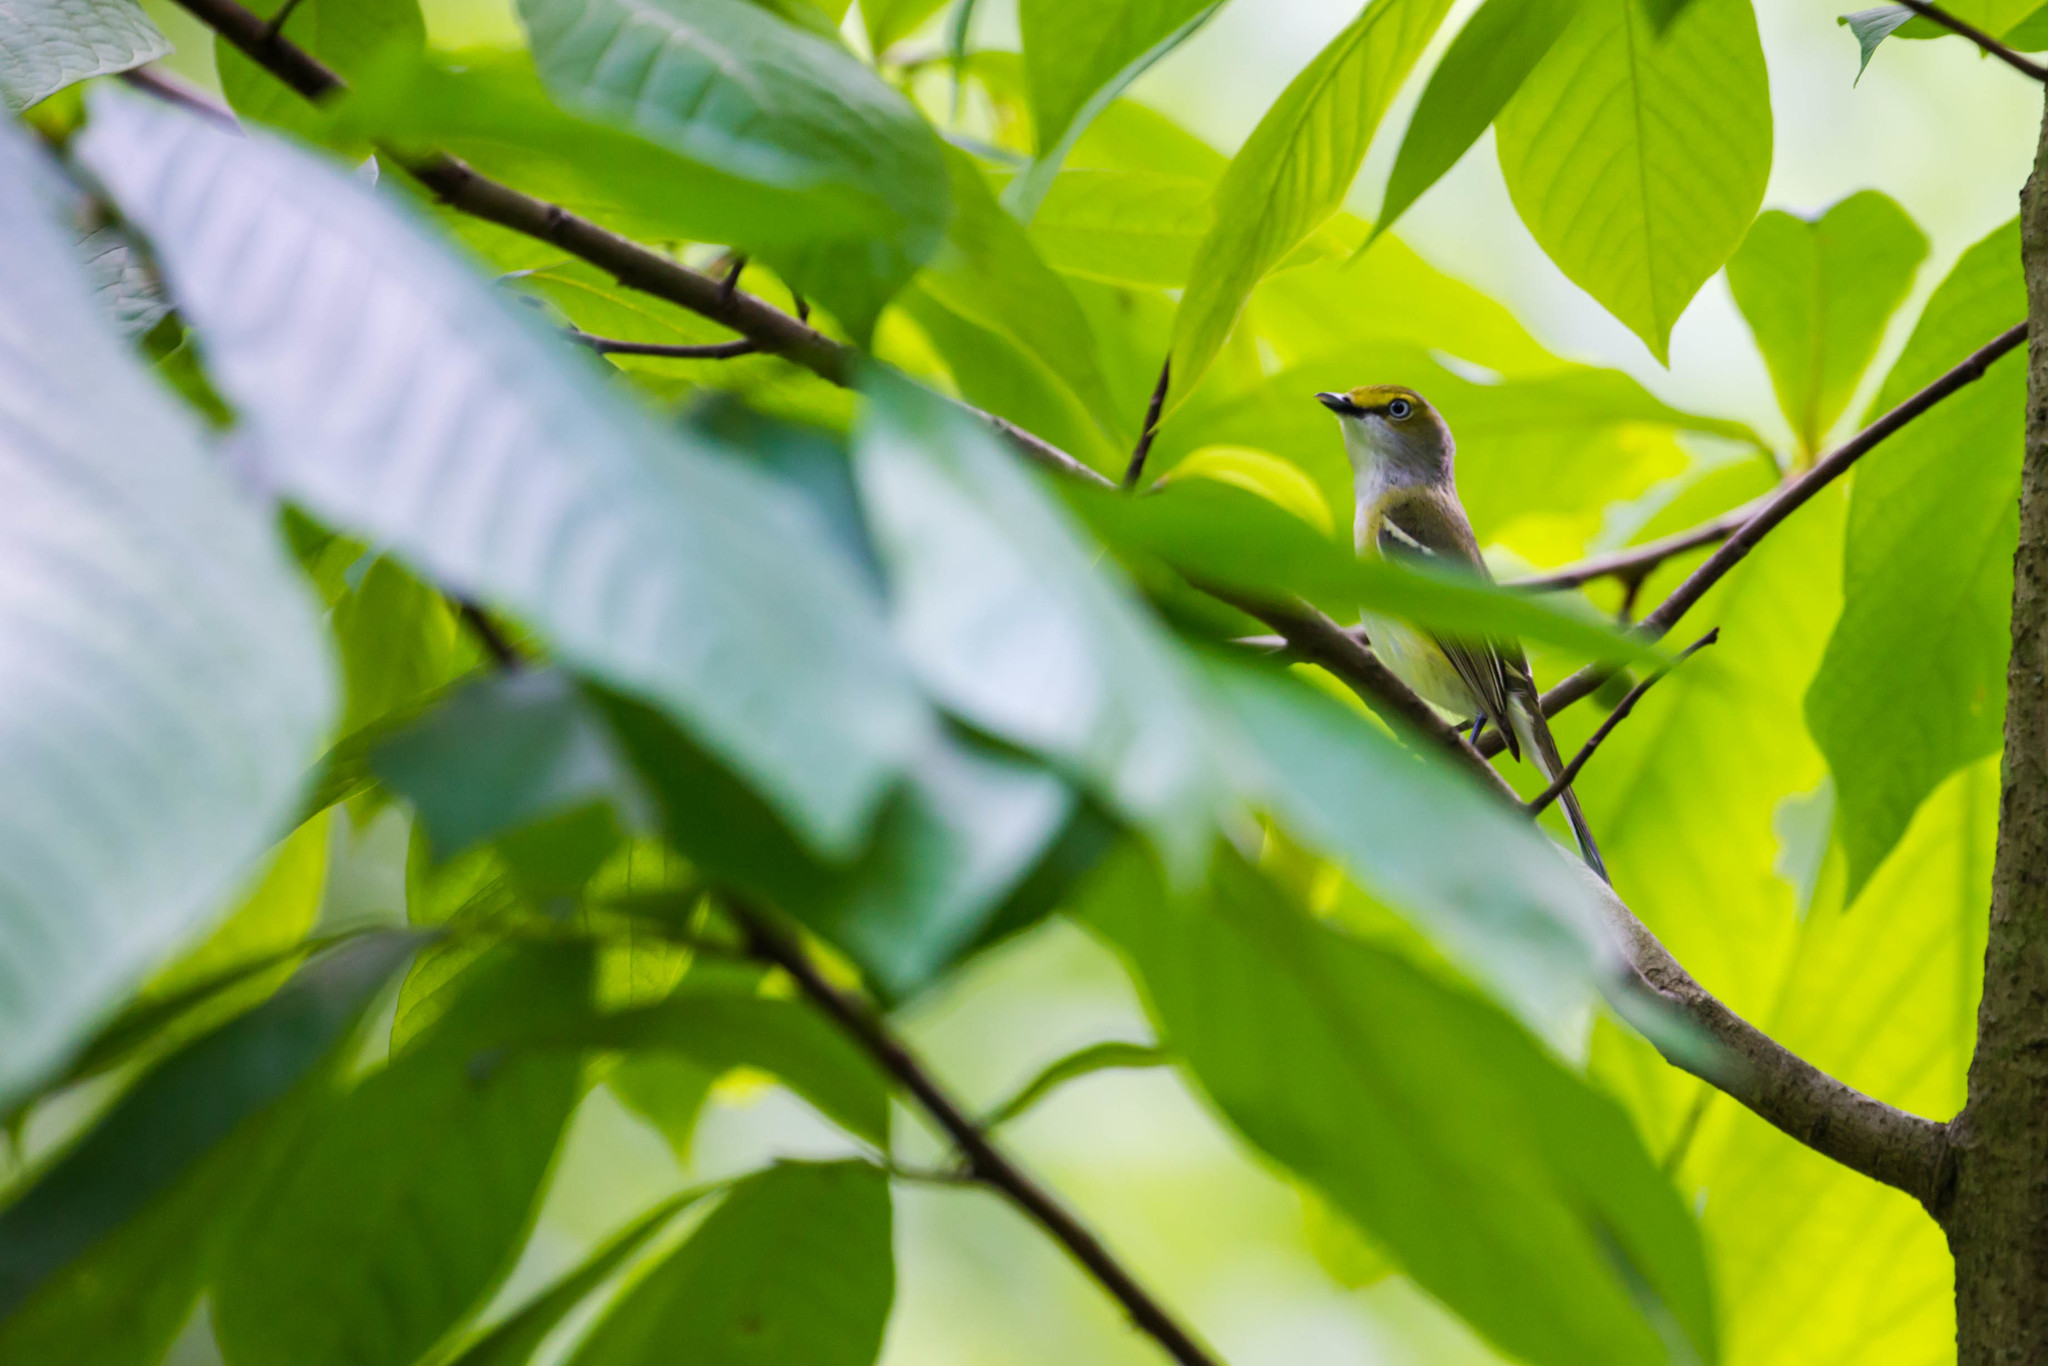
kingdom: Animalia
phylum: Chordata
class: Aves
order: Passeriformes
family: Vireonidae
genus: Vireo
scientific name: Vireo griseus
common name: White-eyed vireo
